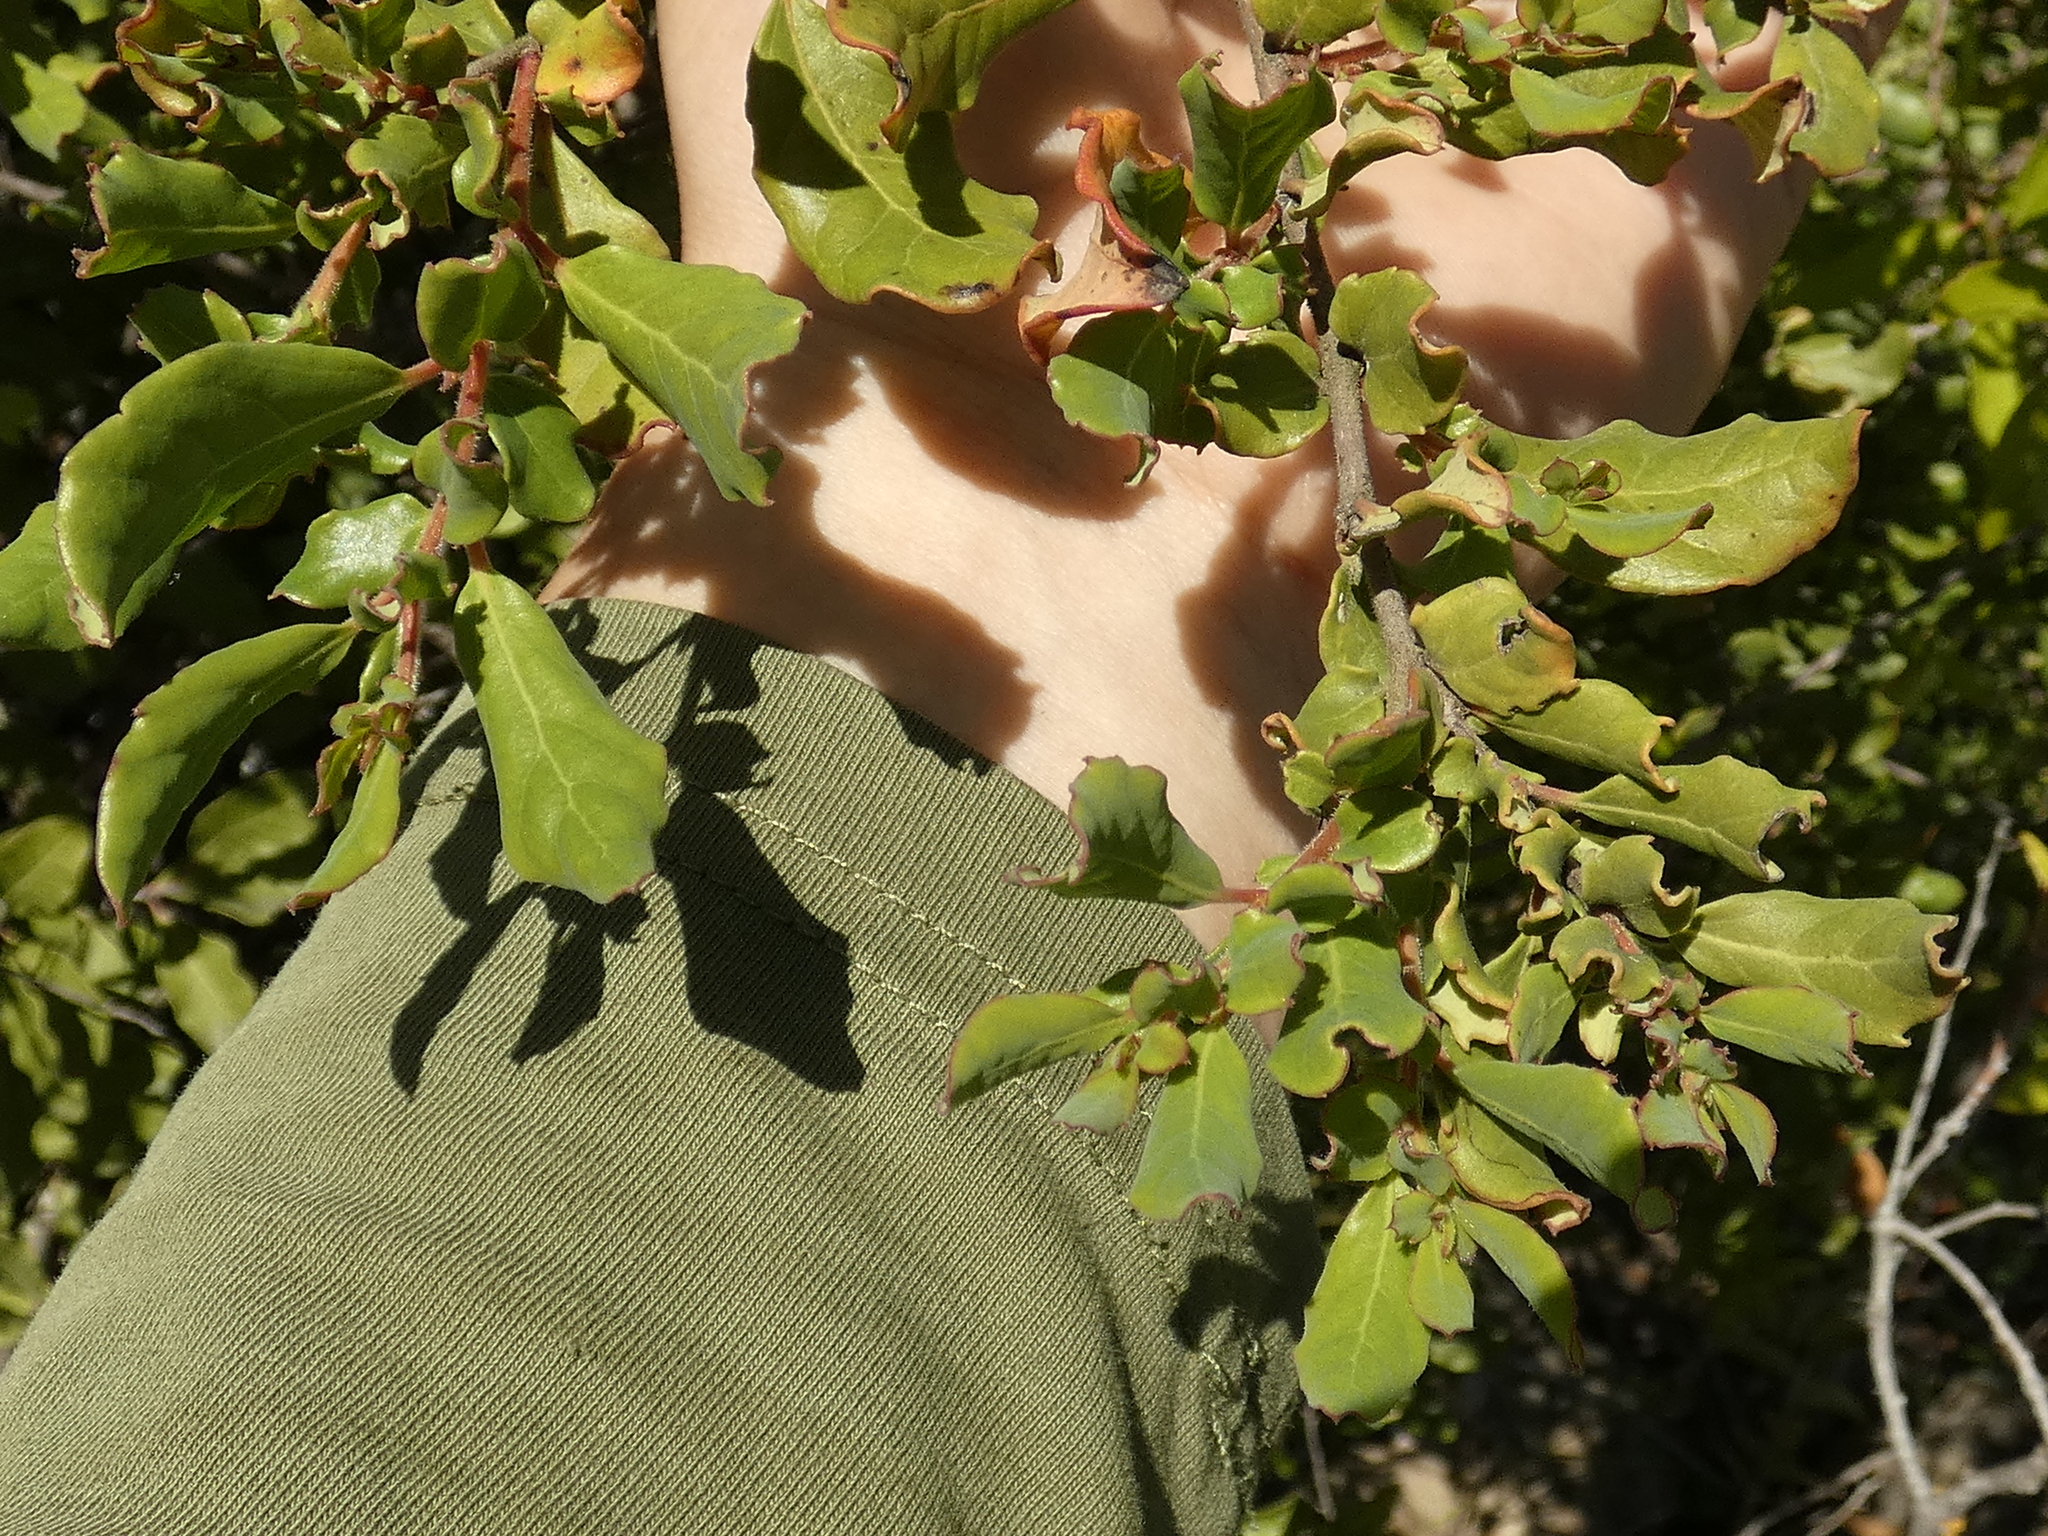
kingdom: Plantae
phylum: Tracheophyta
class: Magnoliopsida
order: Malpighiales
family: Salicaceae
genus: Azara
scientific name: Azara integrifolia
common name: Goldspire
